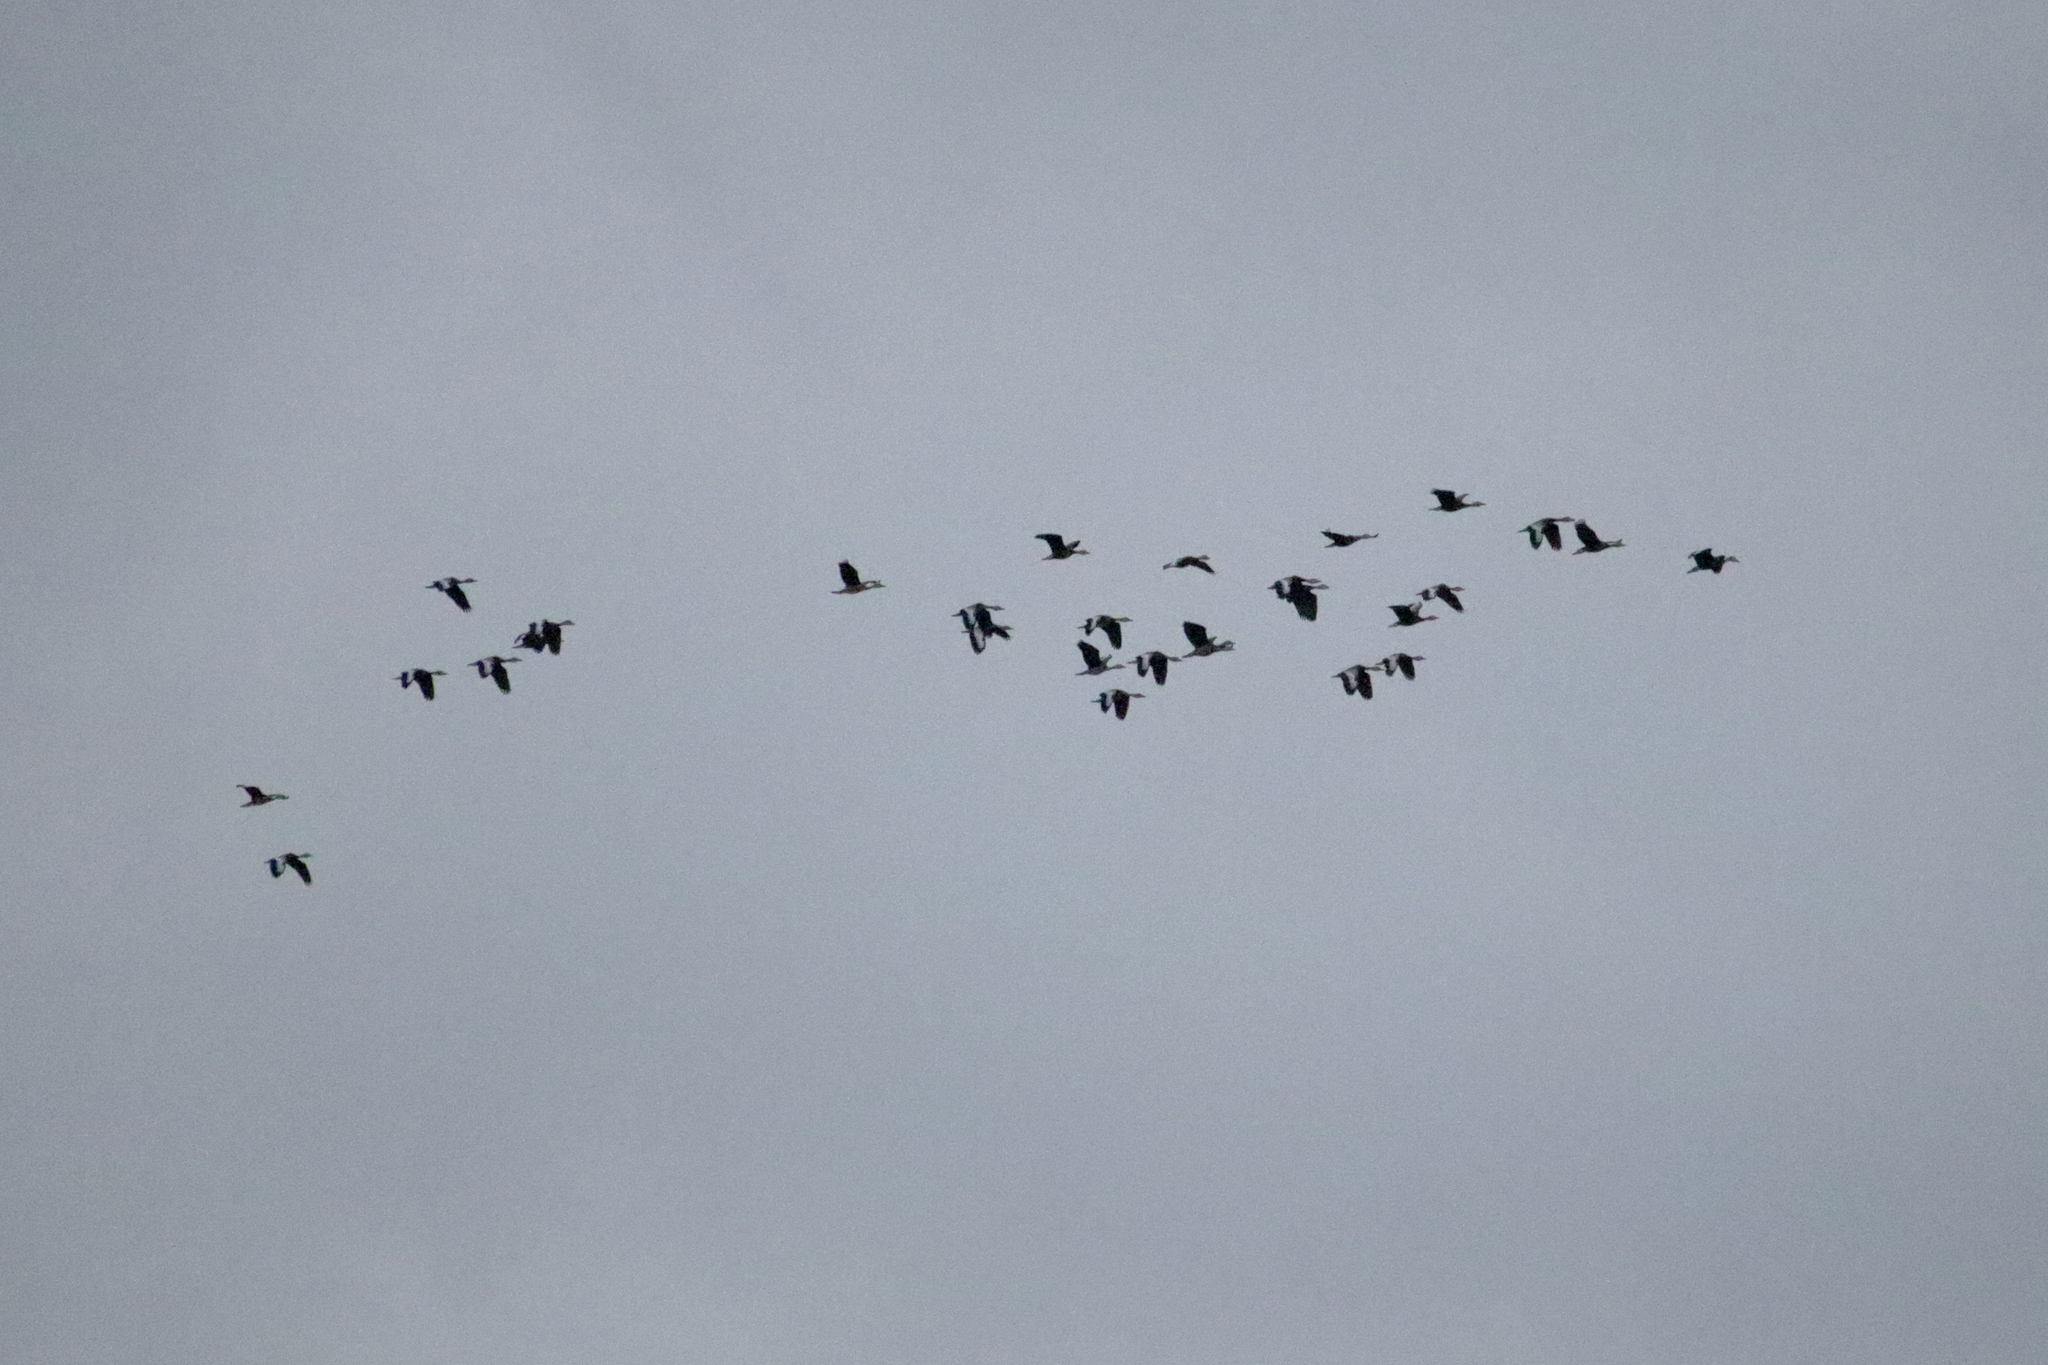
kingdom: Animalia
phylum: Chordata
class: Aves
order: Anseriformes
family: Anatidae
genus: Dendrocygna
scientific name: Dendrocygna autumnalis
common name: Black-bellied whistling duck
